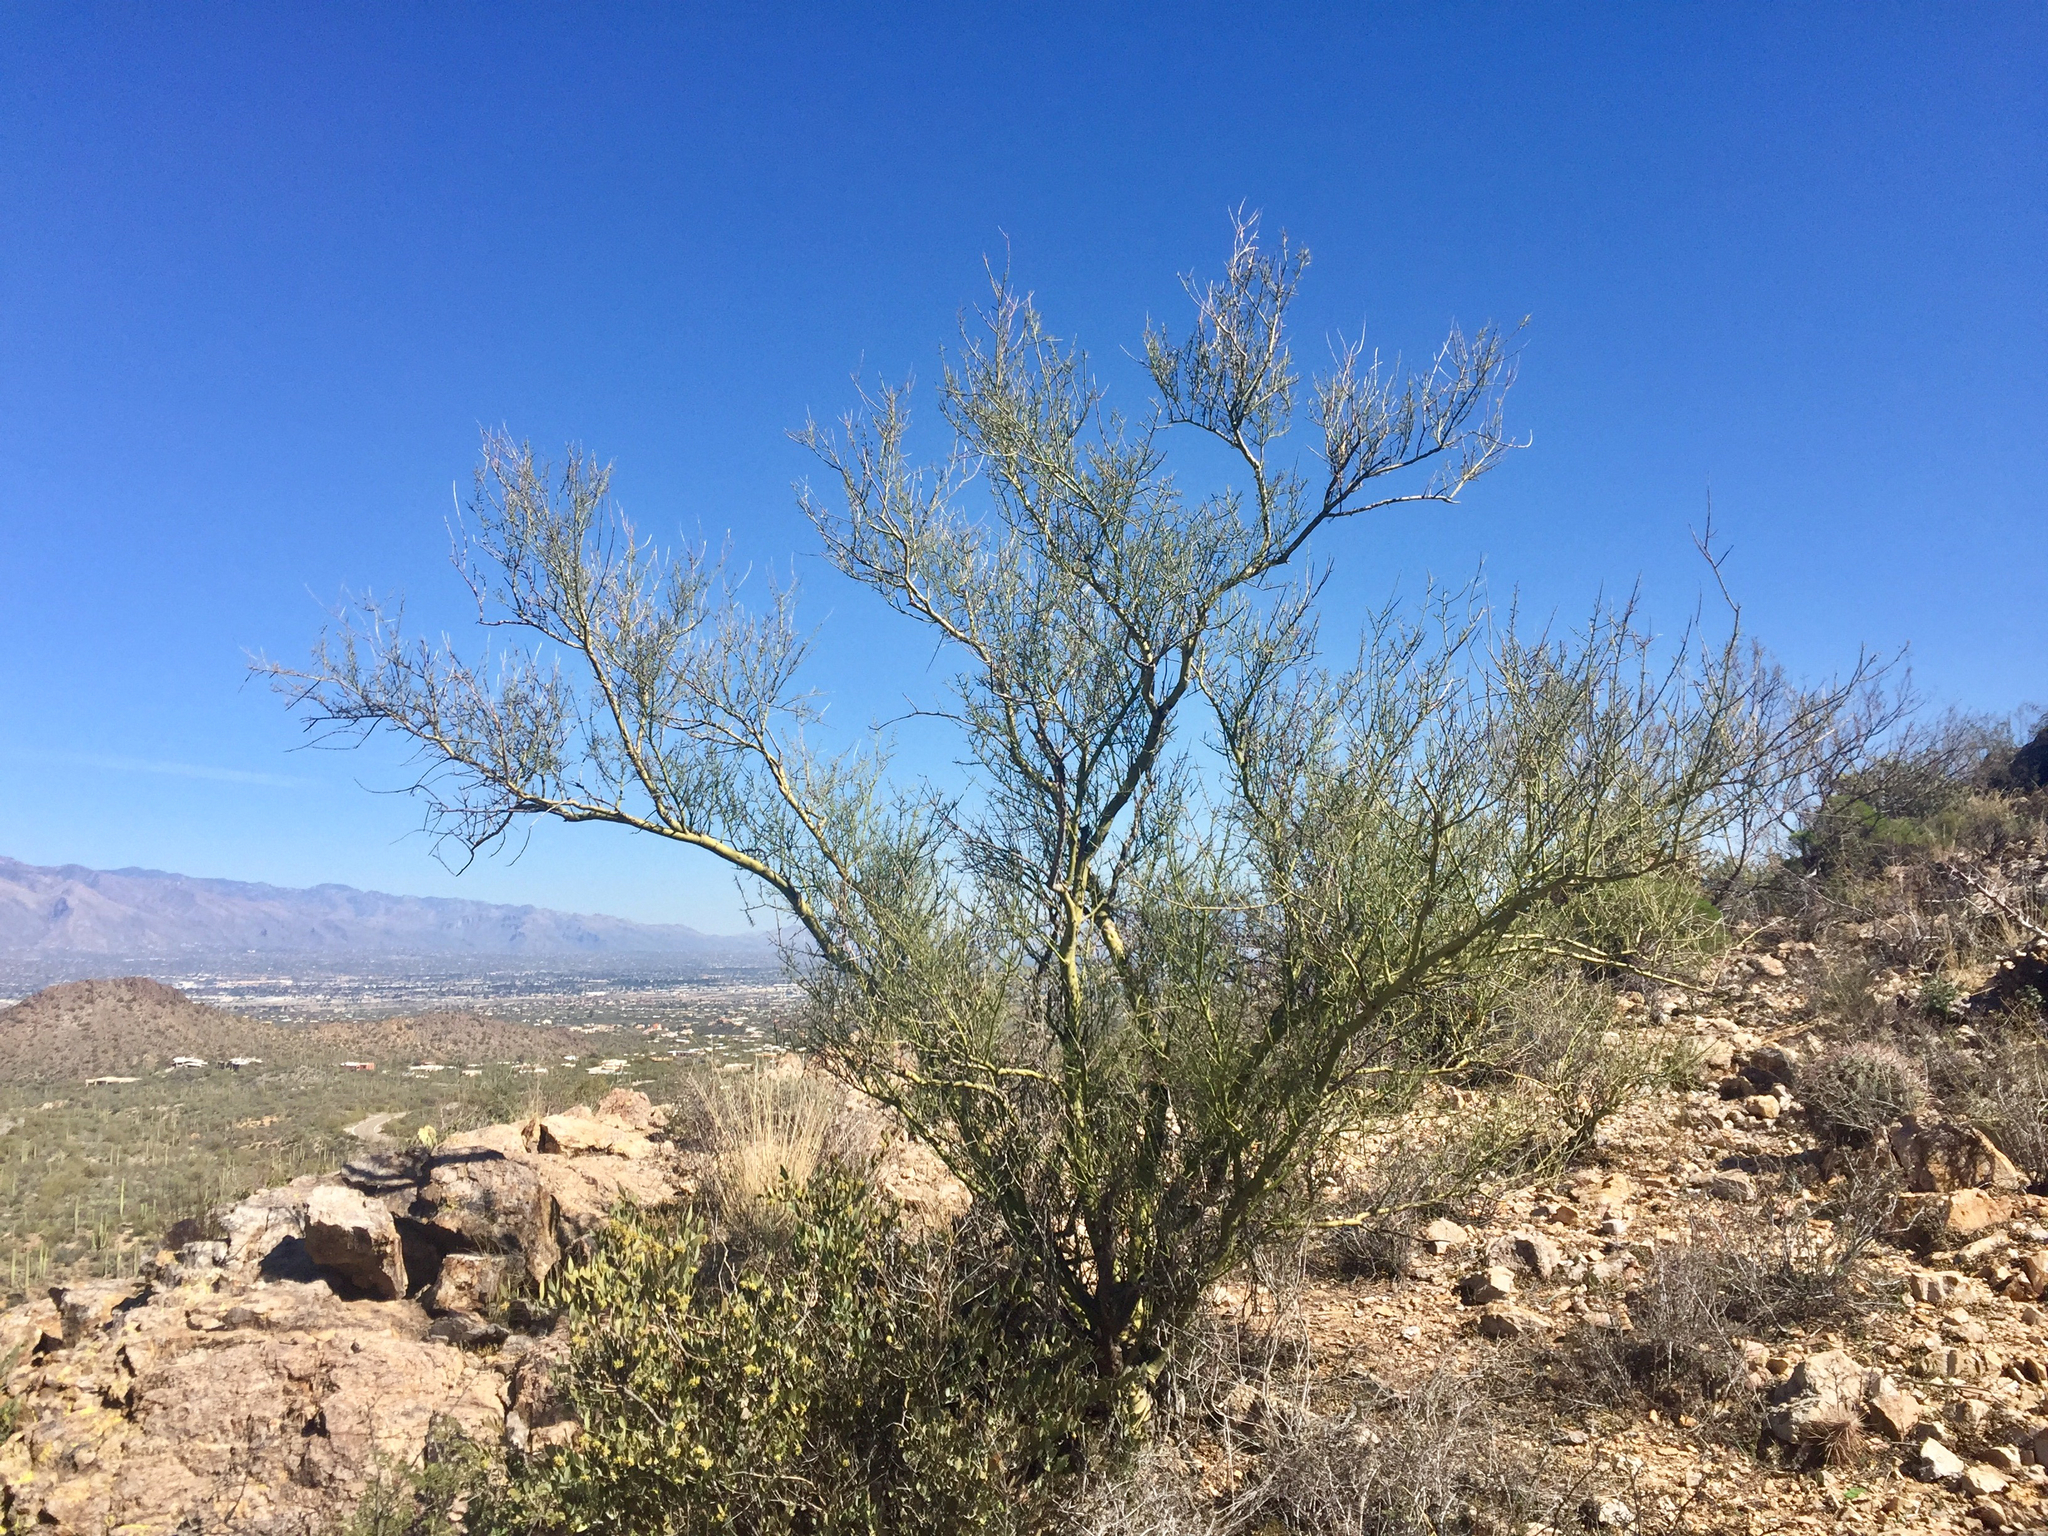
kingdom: Plantae
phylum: Tracheophyta
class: Magnoliopsida
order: Fabales
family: Fabaceae
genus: Parkinsonia
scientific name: Parkinsonia microphylla
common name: Yellow paloverde
